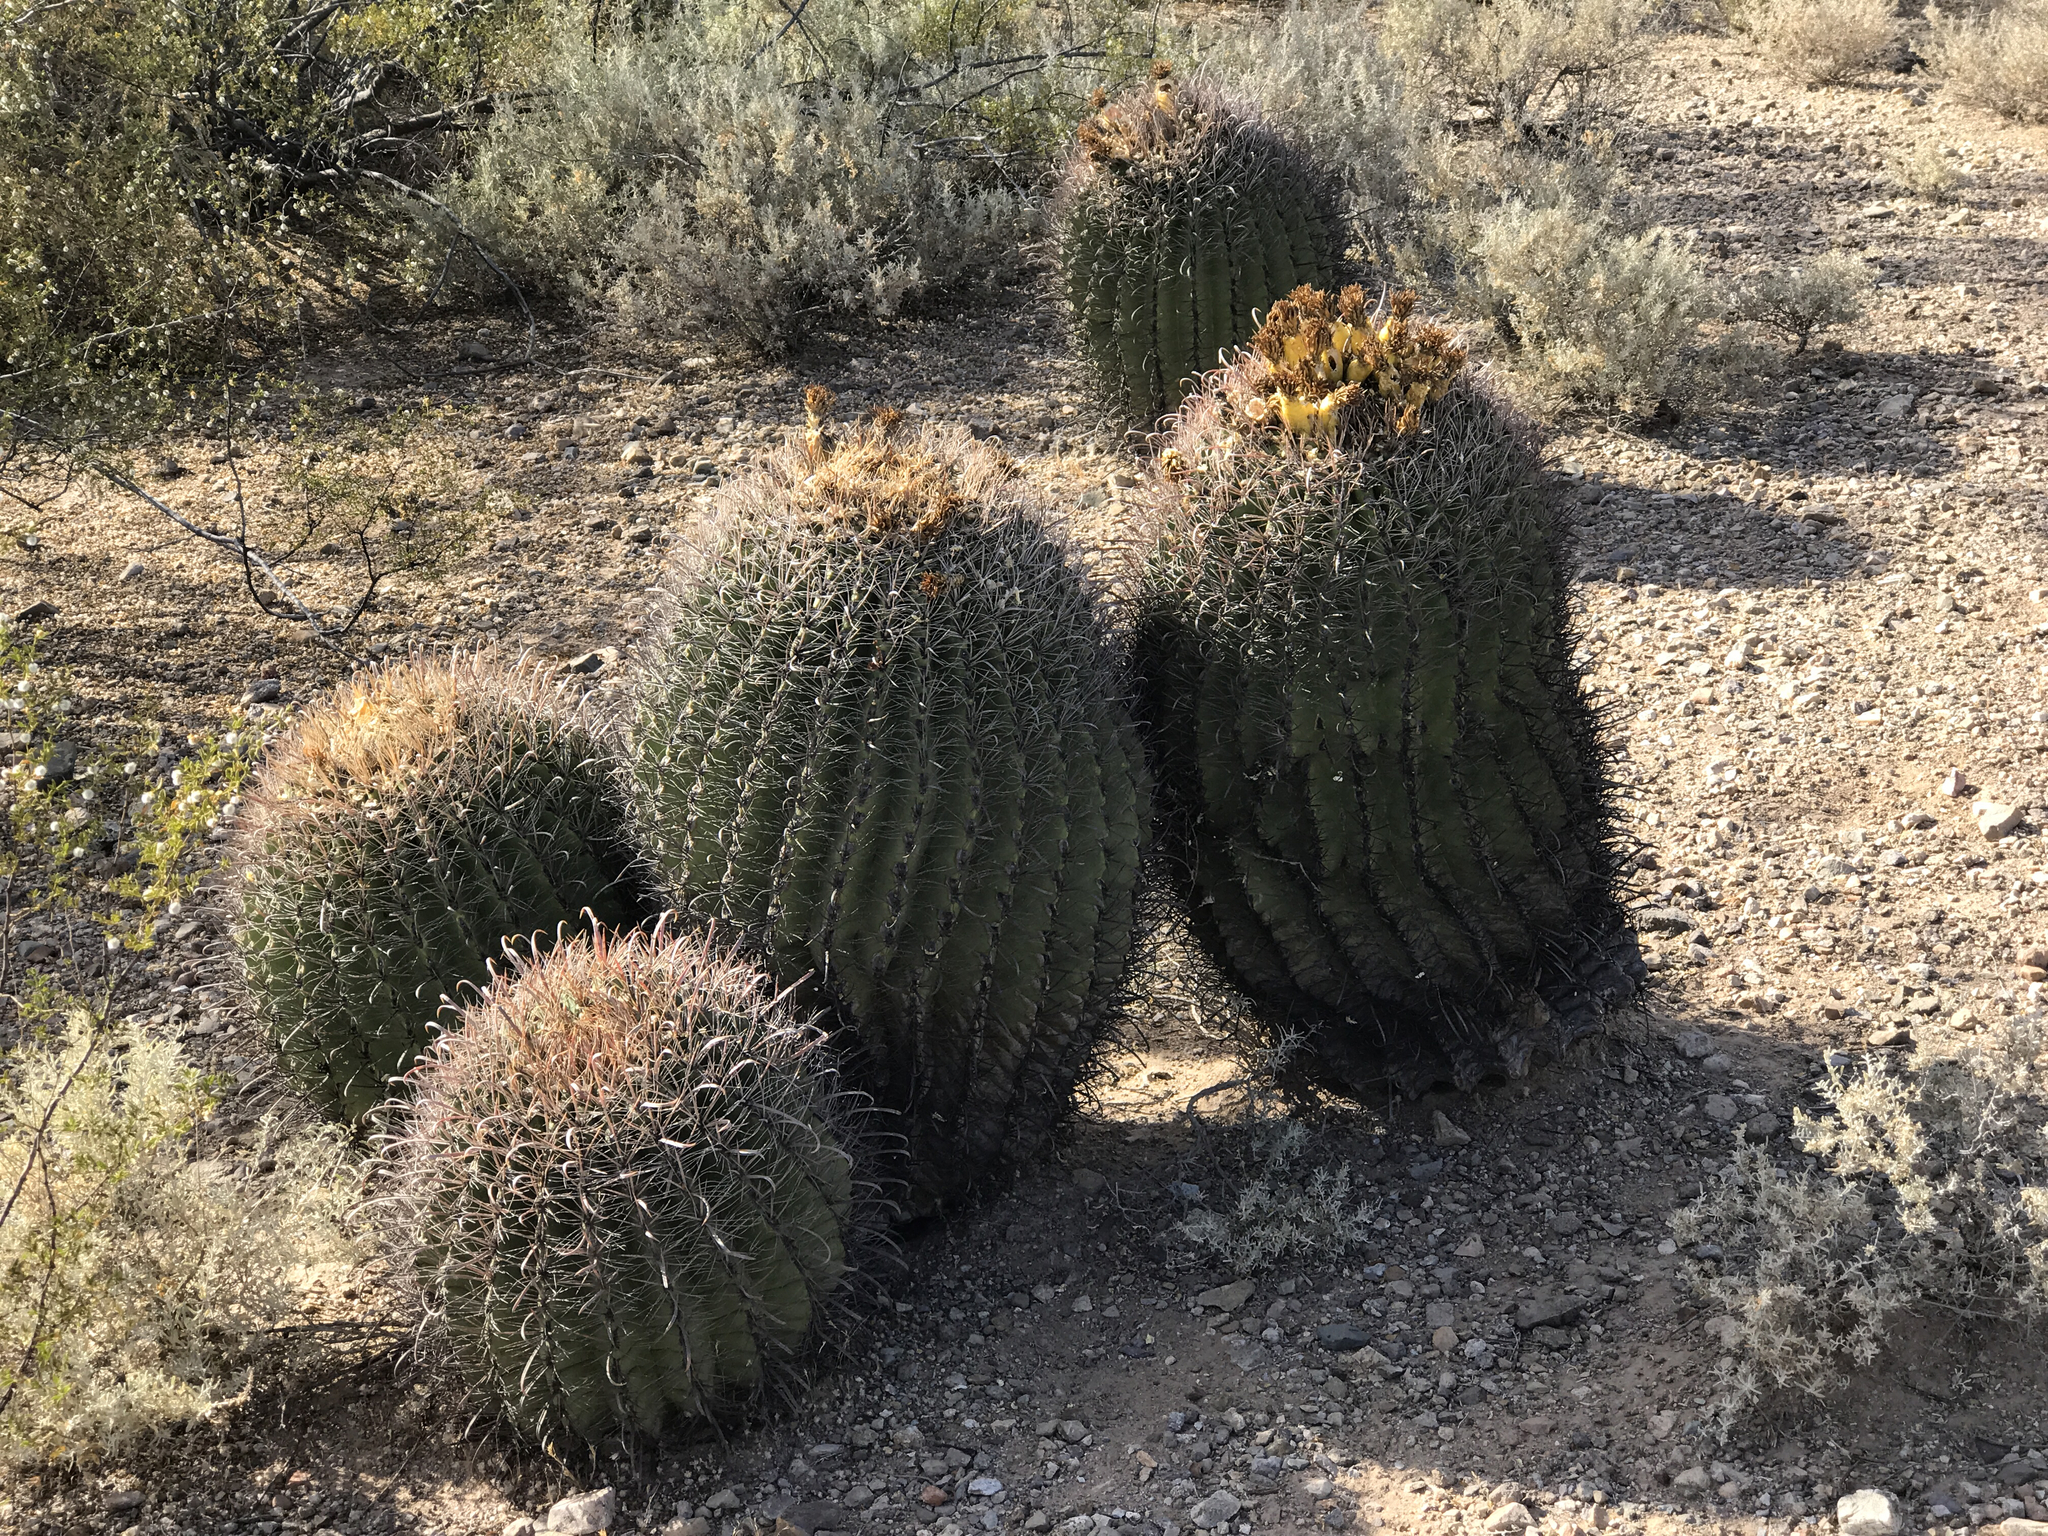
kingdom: Plantae
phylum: Tracheophyta
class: Magnoliopsida
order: Caryophyllales
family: Cactaceae
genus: Ferocactus
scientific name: Ferocactus wislizeni
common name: Candy barrel cactus
